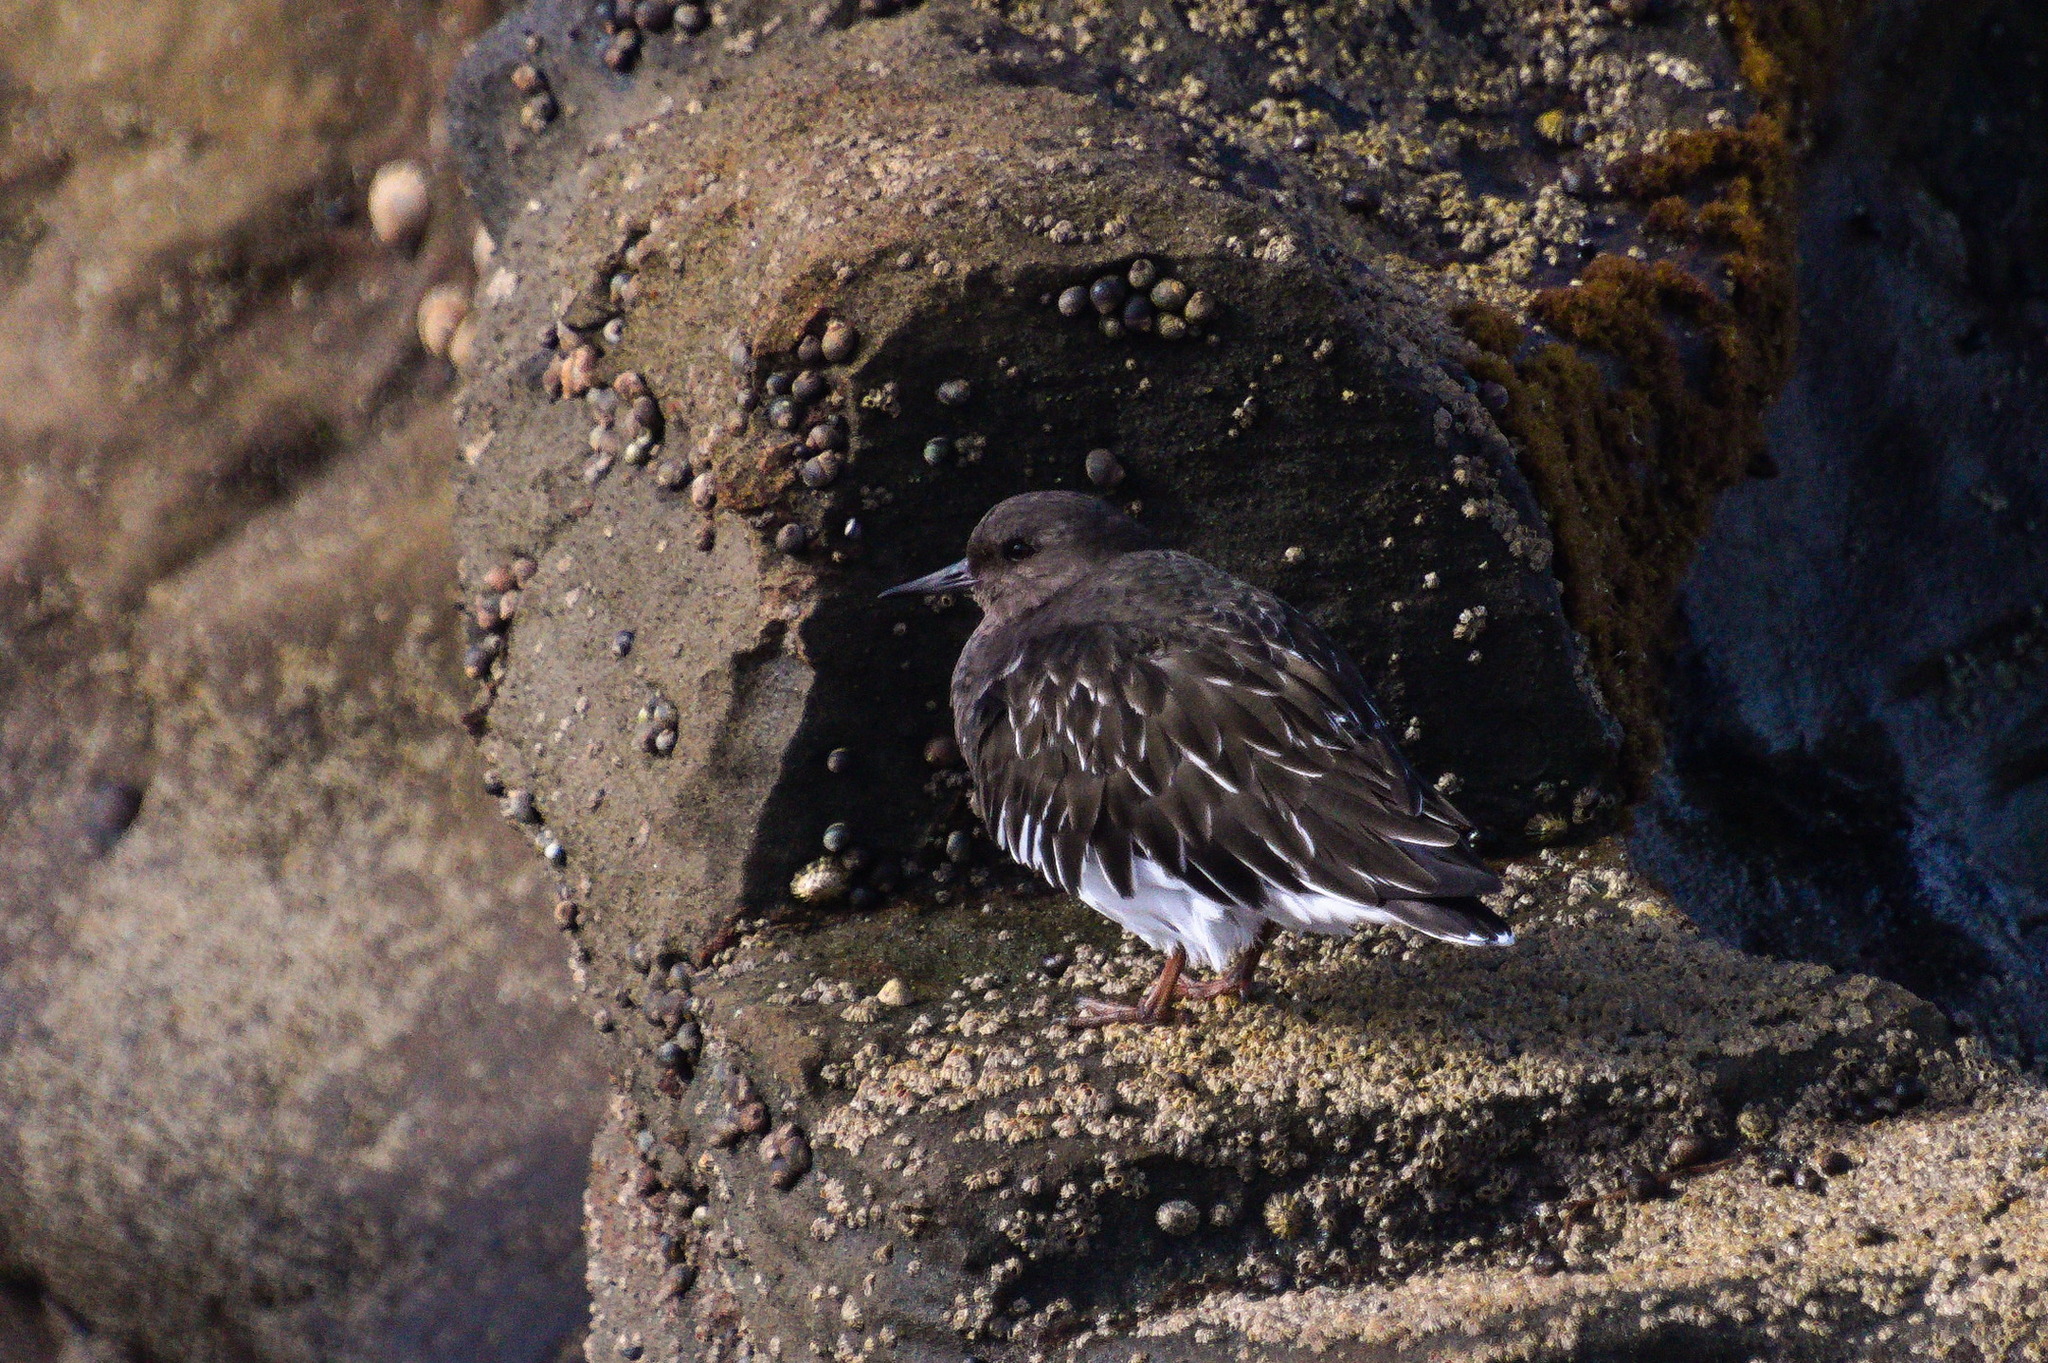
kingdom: Animalia
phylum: Chordata
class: Aves
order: Charadriiformes
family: Scolopacidae
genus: Arenaria
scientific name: Arenaria melanocephala
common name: Black turnstone
